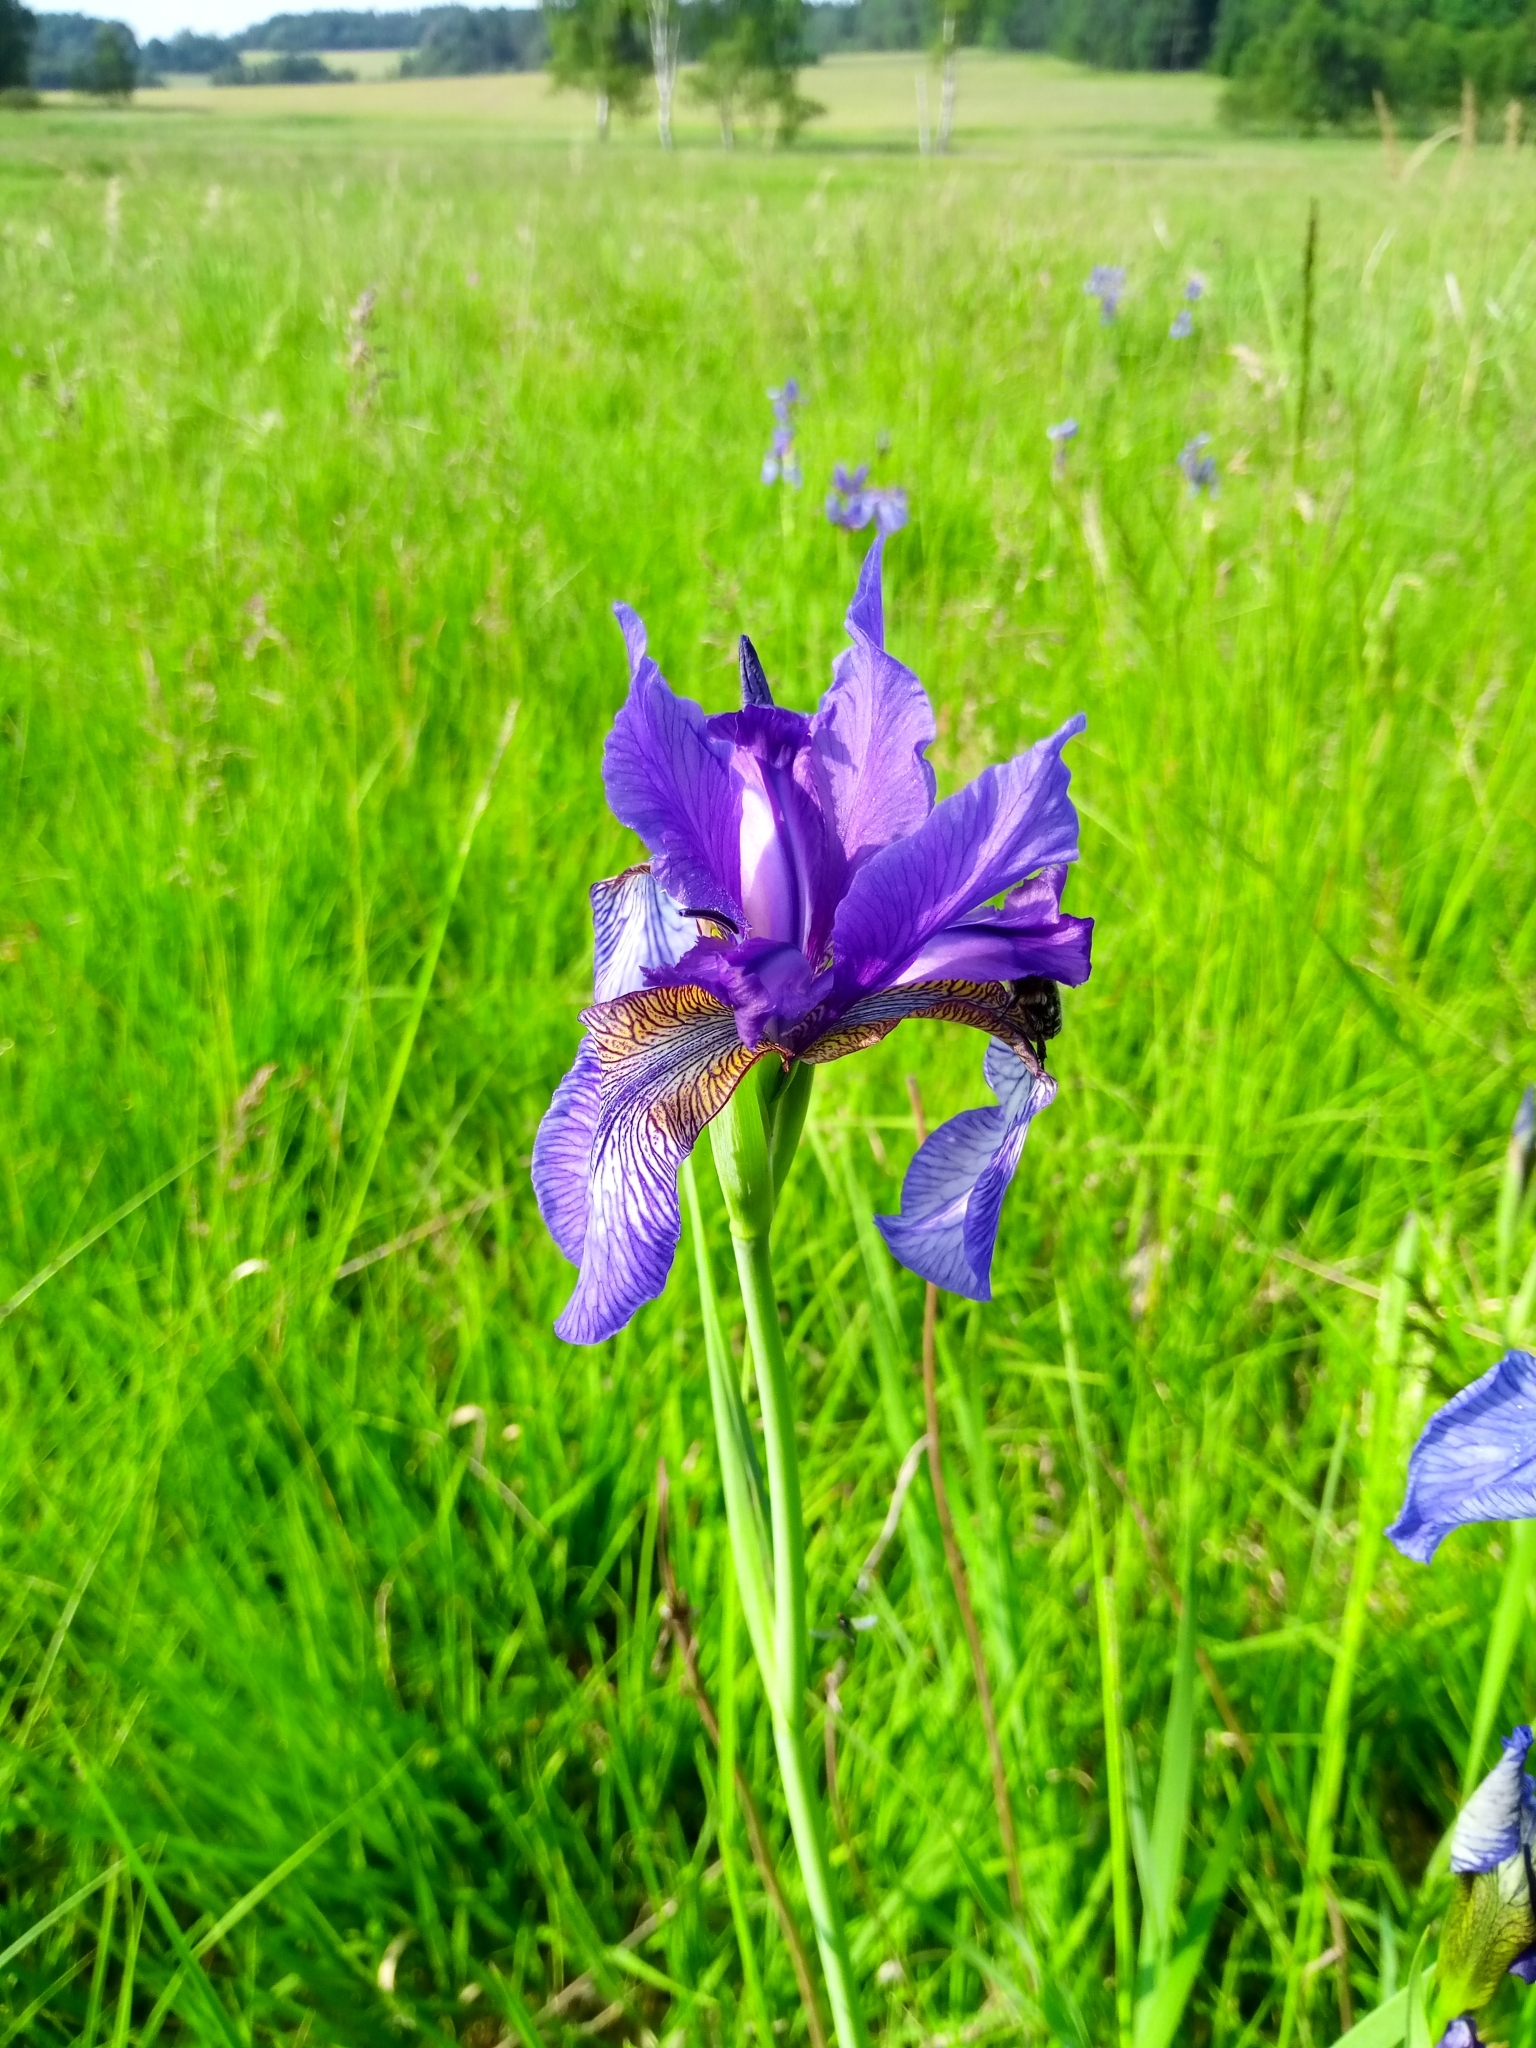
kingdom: Plantae
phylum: Tracheophyta
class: Liliopsida
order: Asparagales
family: Iridaceae
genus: Iris
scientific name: Iris sibirica
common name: Siberian iris
